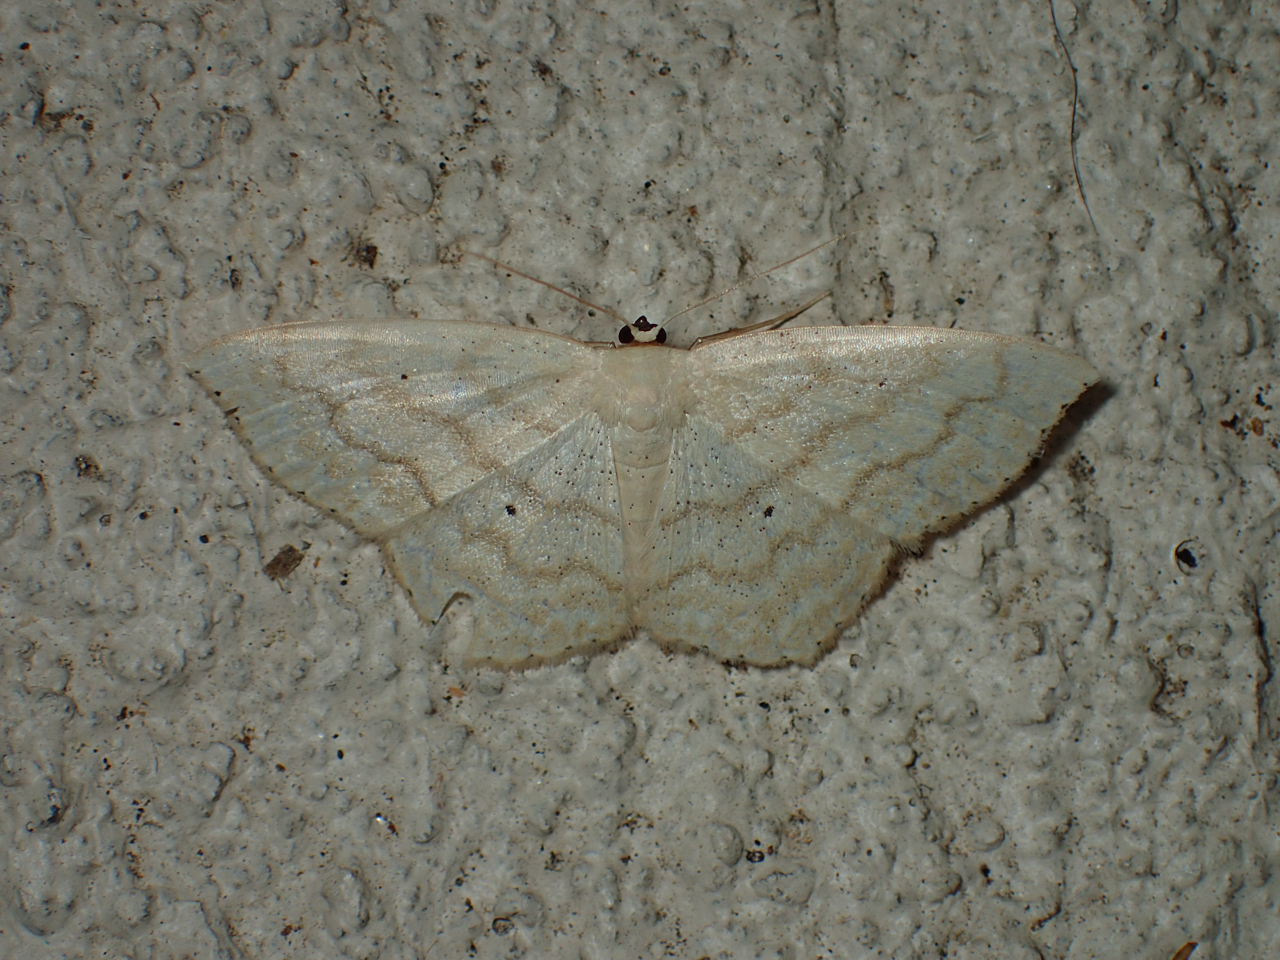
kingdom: Animalia
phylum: Arthropoda
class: Insecta
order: Lepidoptera
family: Geometridae
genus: Scopula
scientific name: Scopula limboundata
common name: Large lace border
